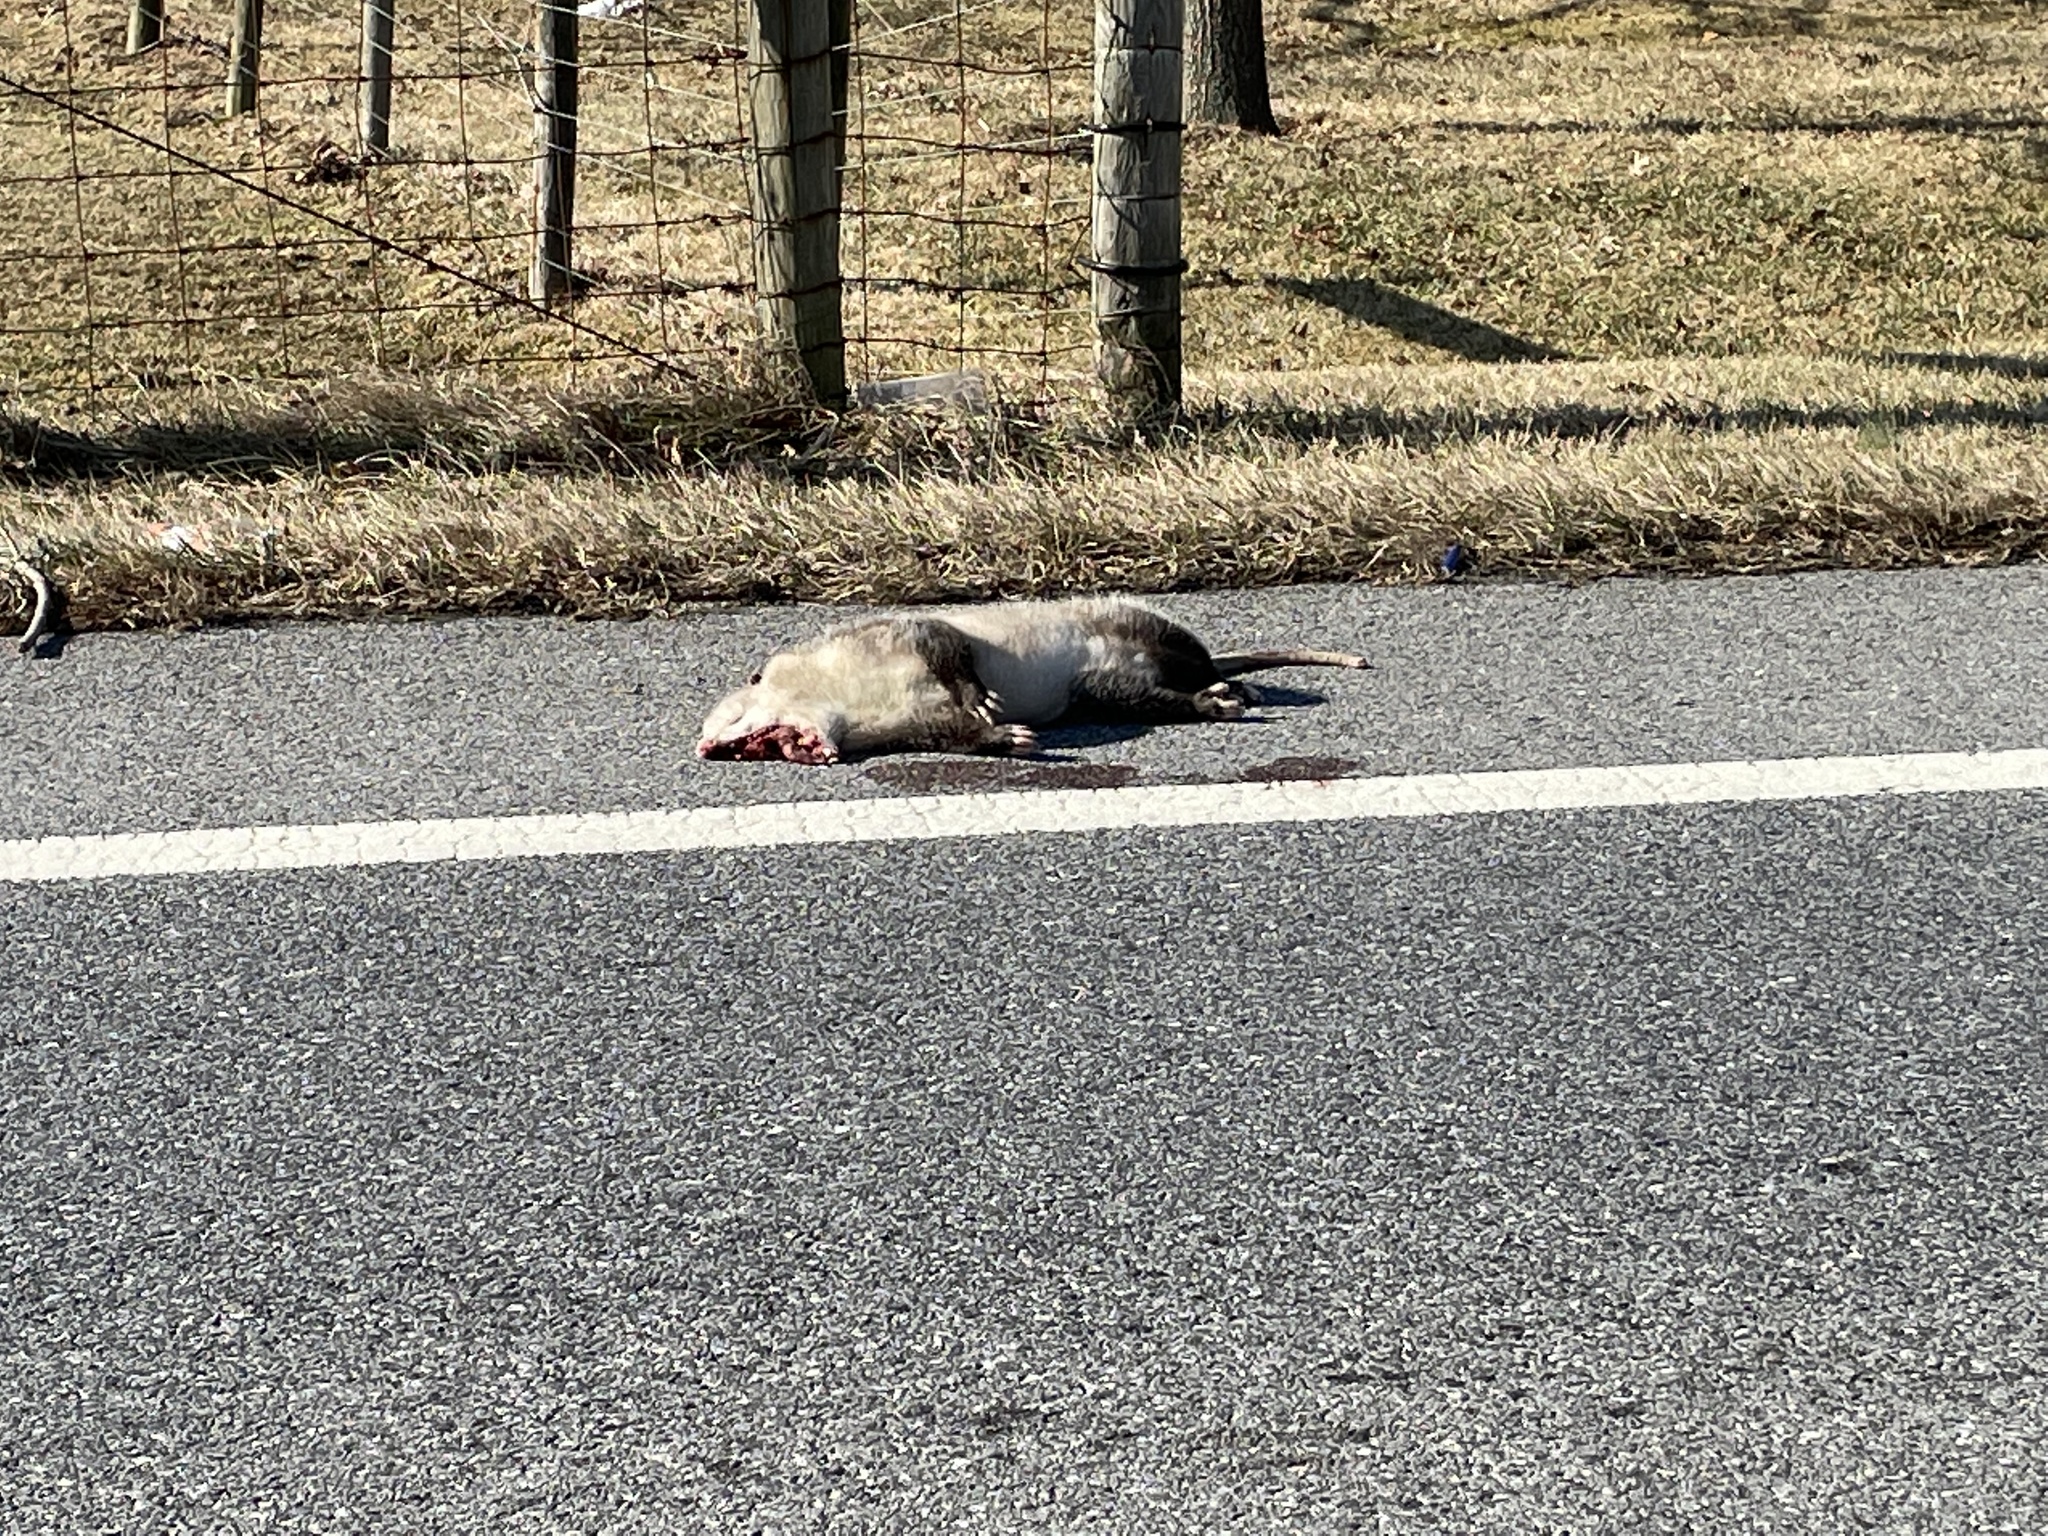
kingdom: Animalia
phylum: Chordata
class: Mammalia
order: Didelphimorphia
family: Didelphidae
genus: Didelphis
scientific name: Didelphis virginiana
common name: Virginia opossum
